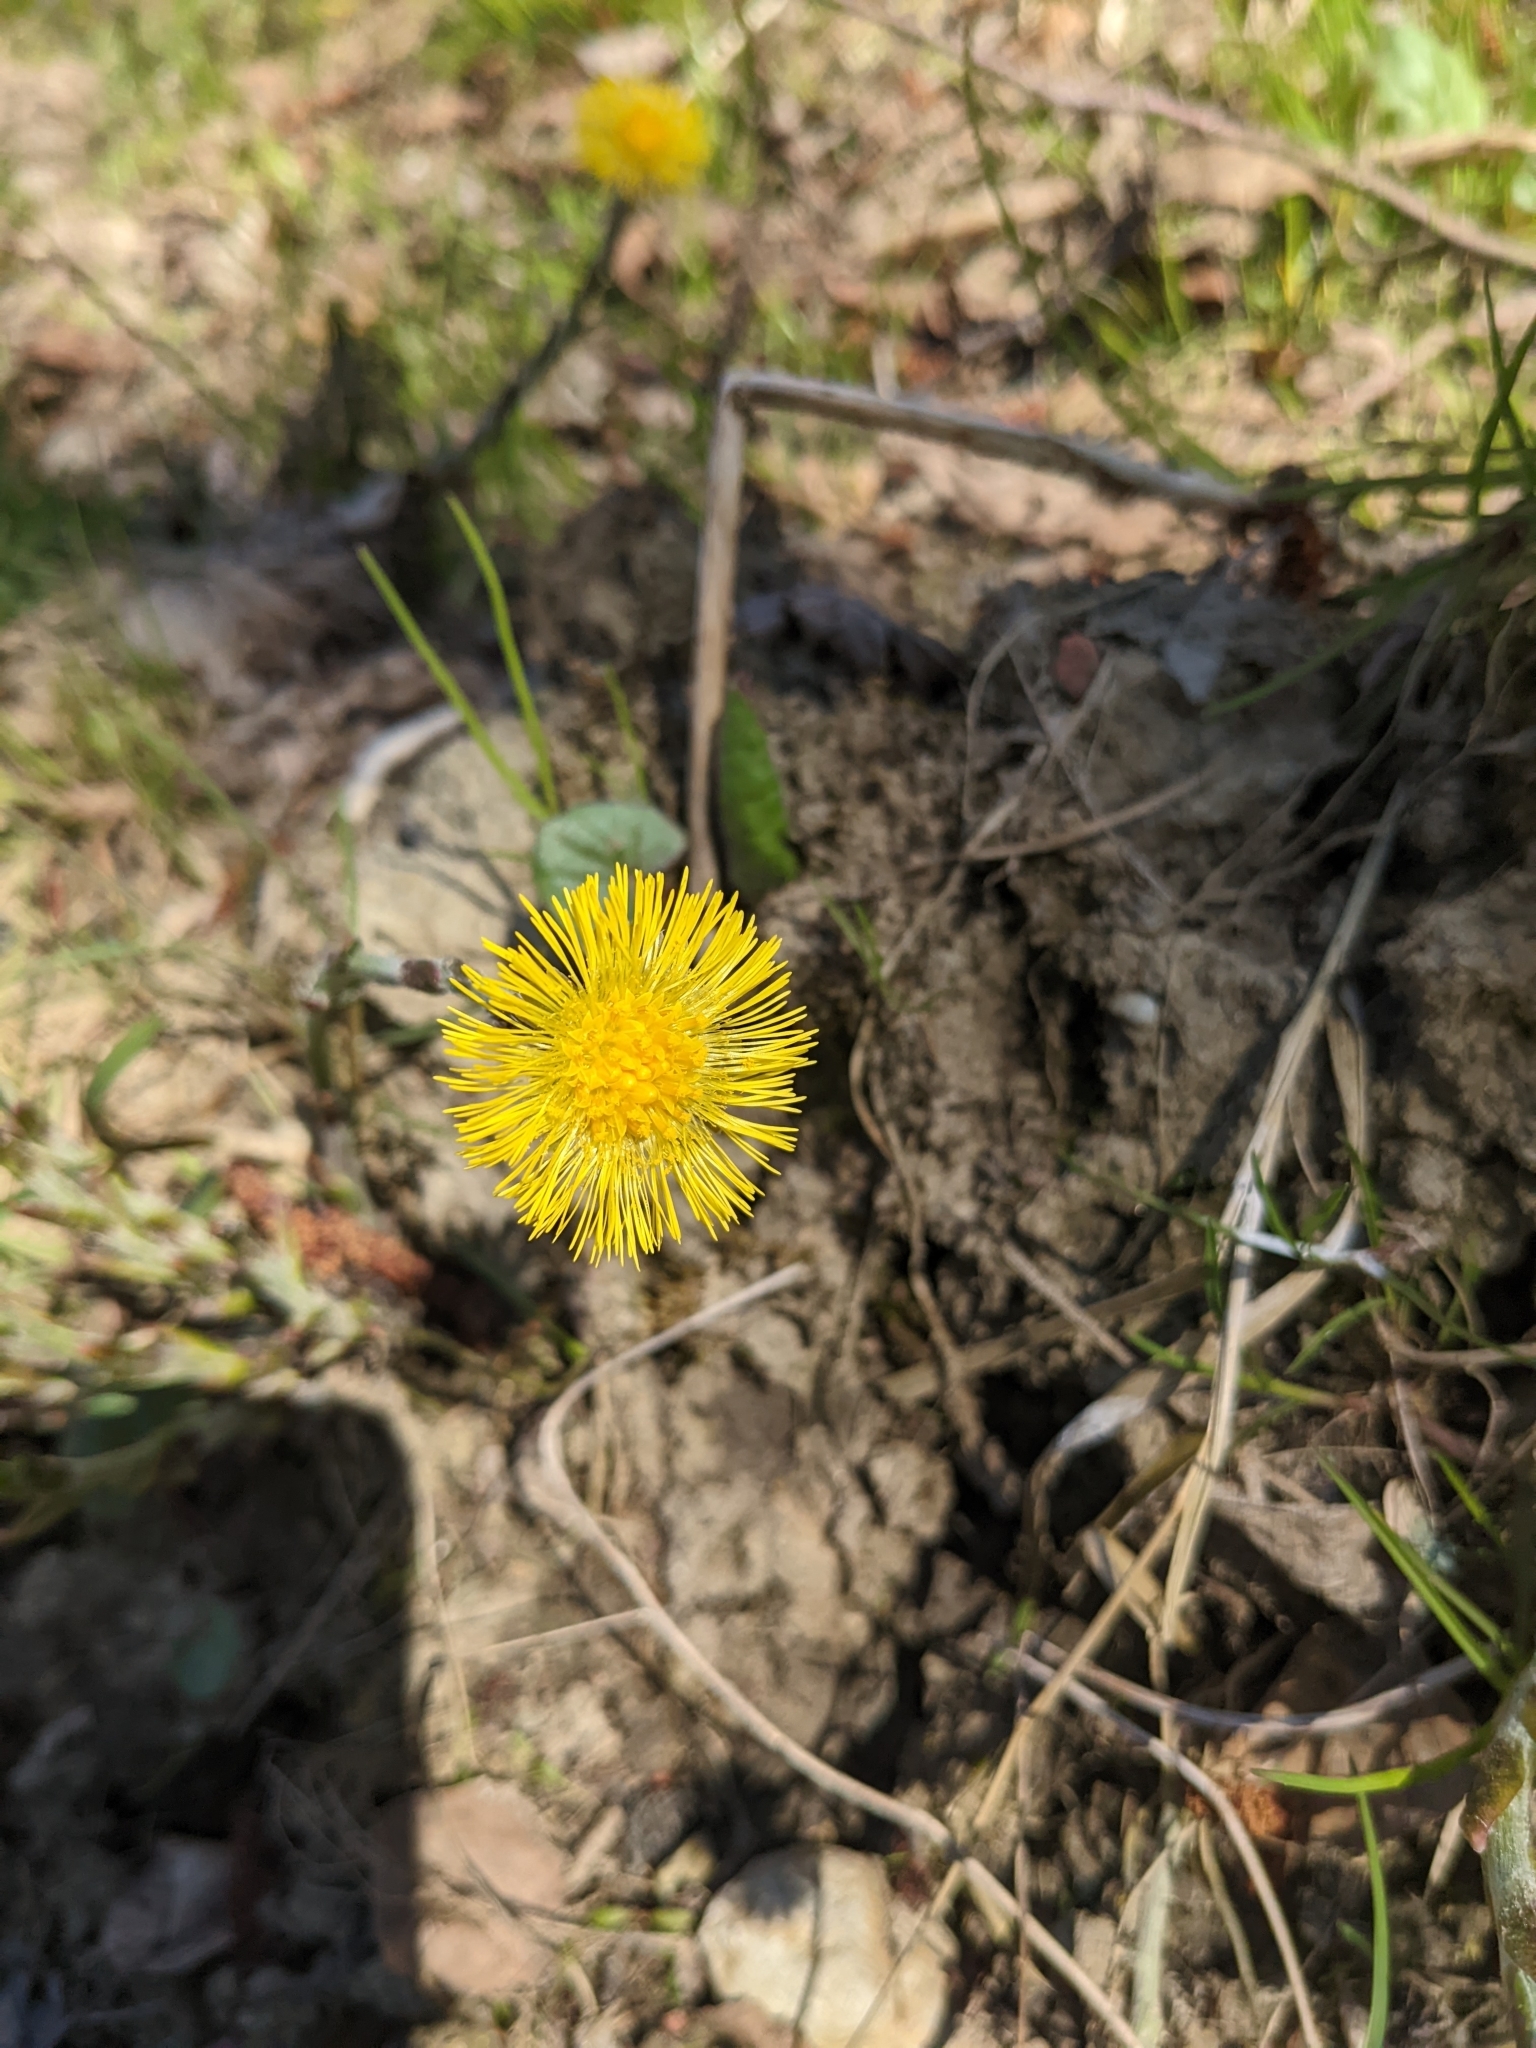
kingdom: Plantae
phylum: Tracheophyta
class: Magnoliopsida
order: Asterales
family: Asteraceae
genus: Tussilago
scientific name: Tussilago farfara
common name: Coltsfoot
